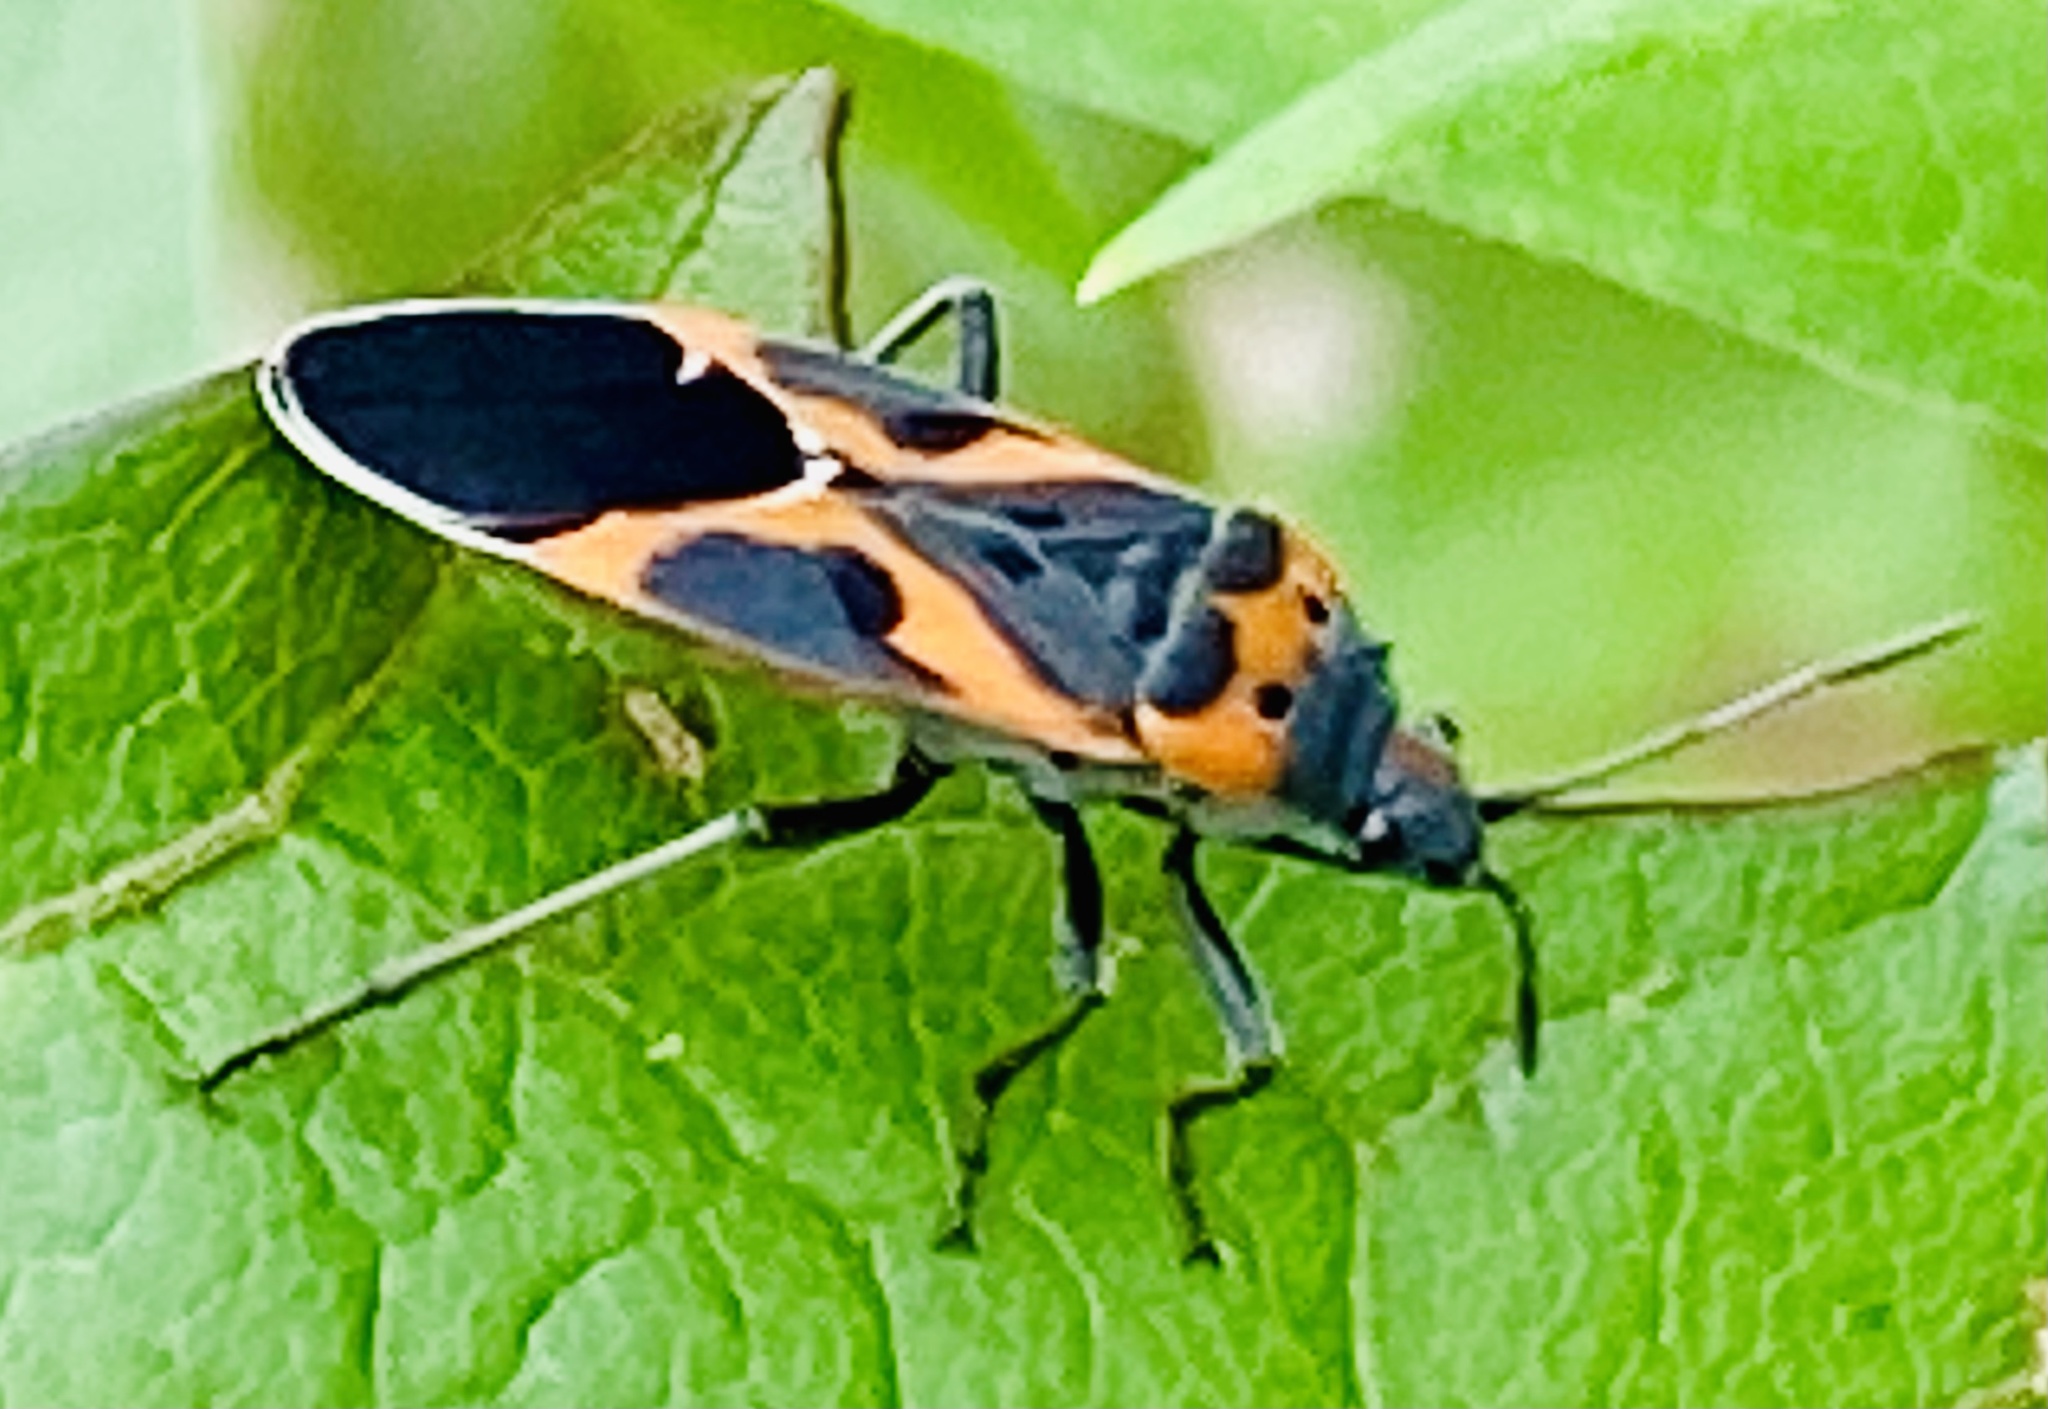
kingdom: Animalia
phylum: Arthropoda
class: Insecta
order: Hemiptera
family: Lygaeidae
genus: Lygaeus
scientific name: Lygaeus kalmii
